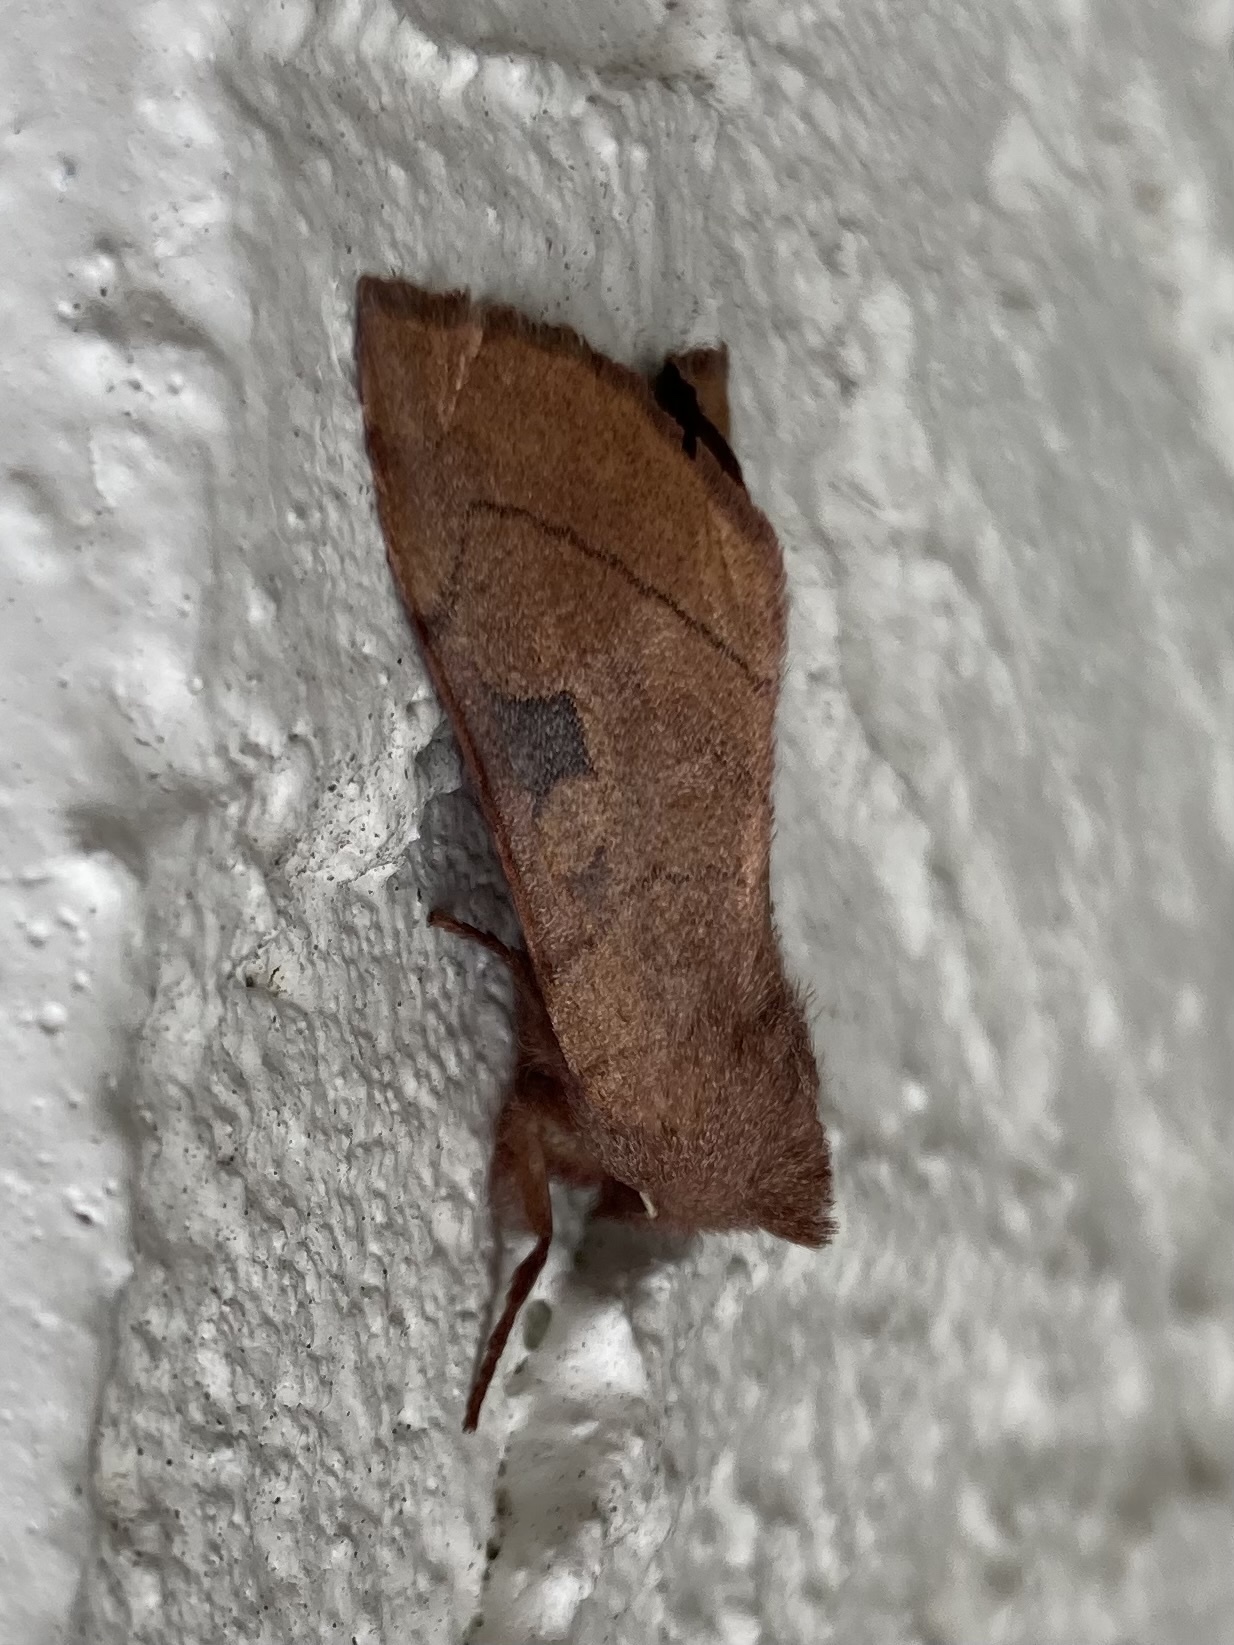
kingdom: Animalia
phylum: Arthropoda
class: Insecta
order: Lepidoptera
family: Noctuidae
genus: Choephora
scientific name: Choephora fungorum
